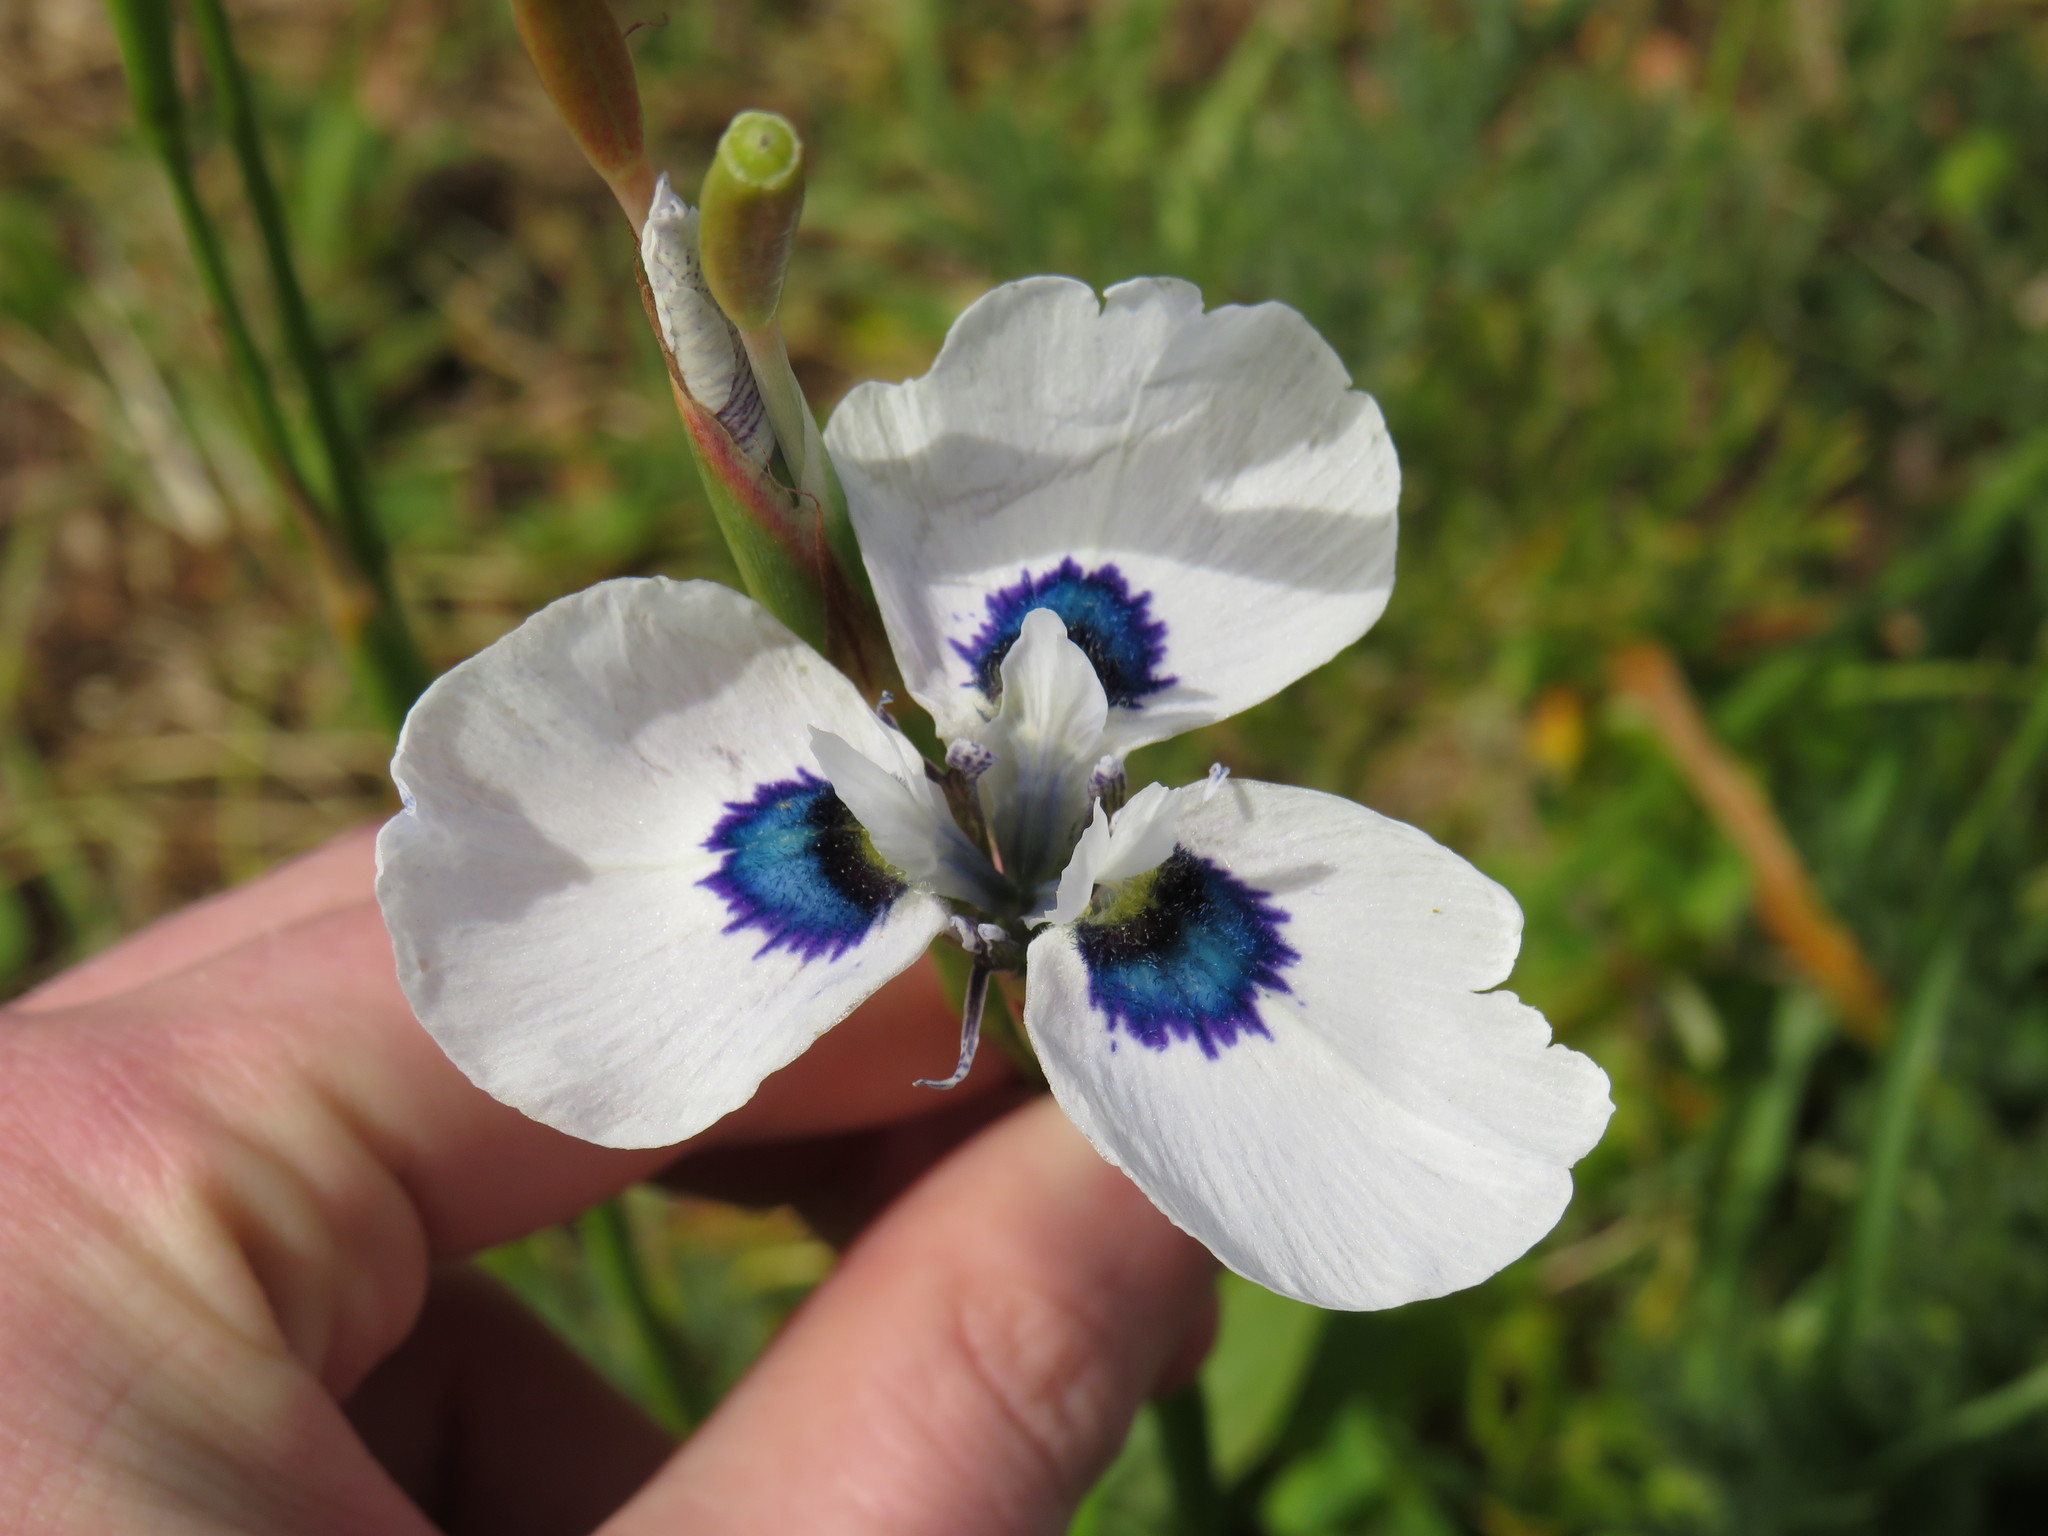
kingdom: Plantae
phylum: Tracheophyta
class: Liliopsida
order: Asparagales
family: Iridaceae
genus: Moraea
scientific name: Moraea aristata
